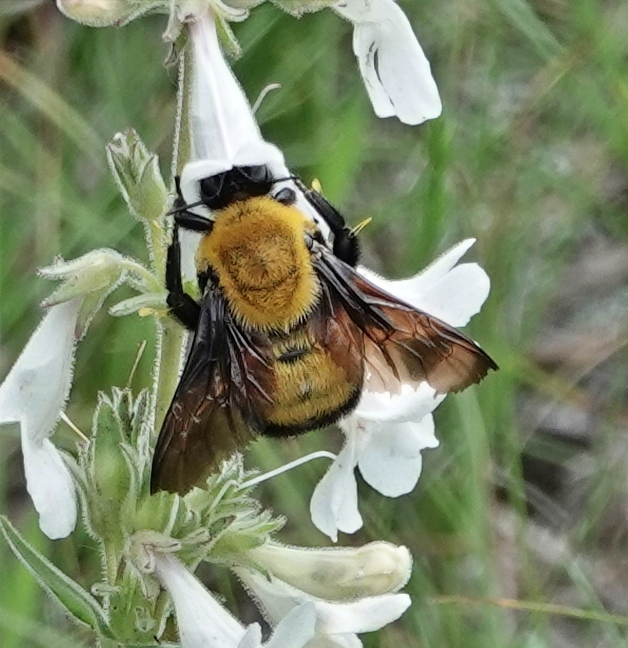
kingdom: Animalia
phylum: Arthropoda
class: Insecta
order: Hymenoptera
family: Apidae
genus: Bombus
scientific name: Bombus morrisoni
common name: Morrison bumble bee
